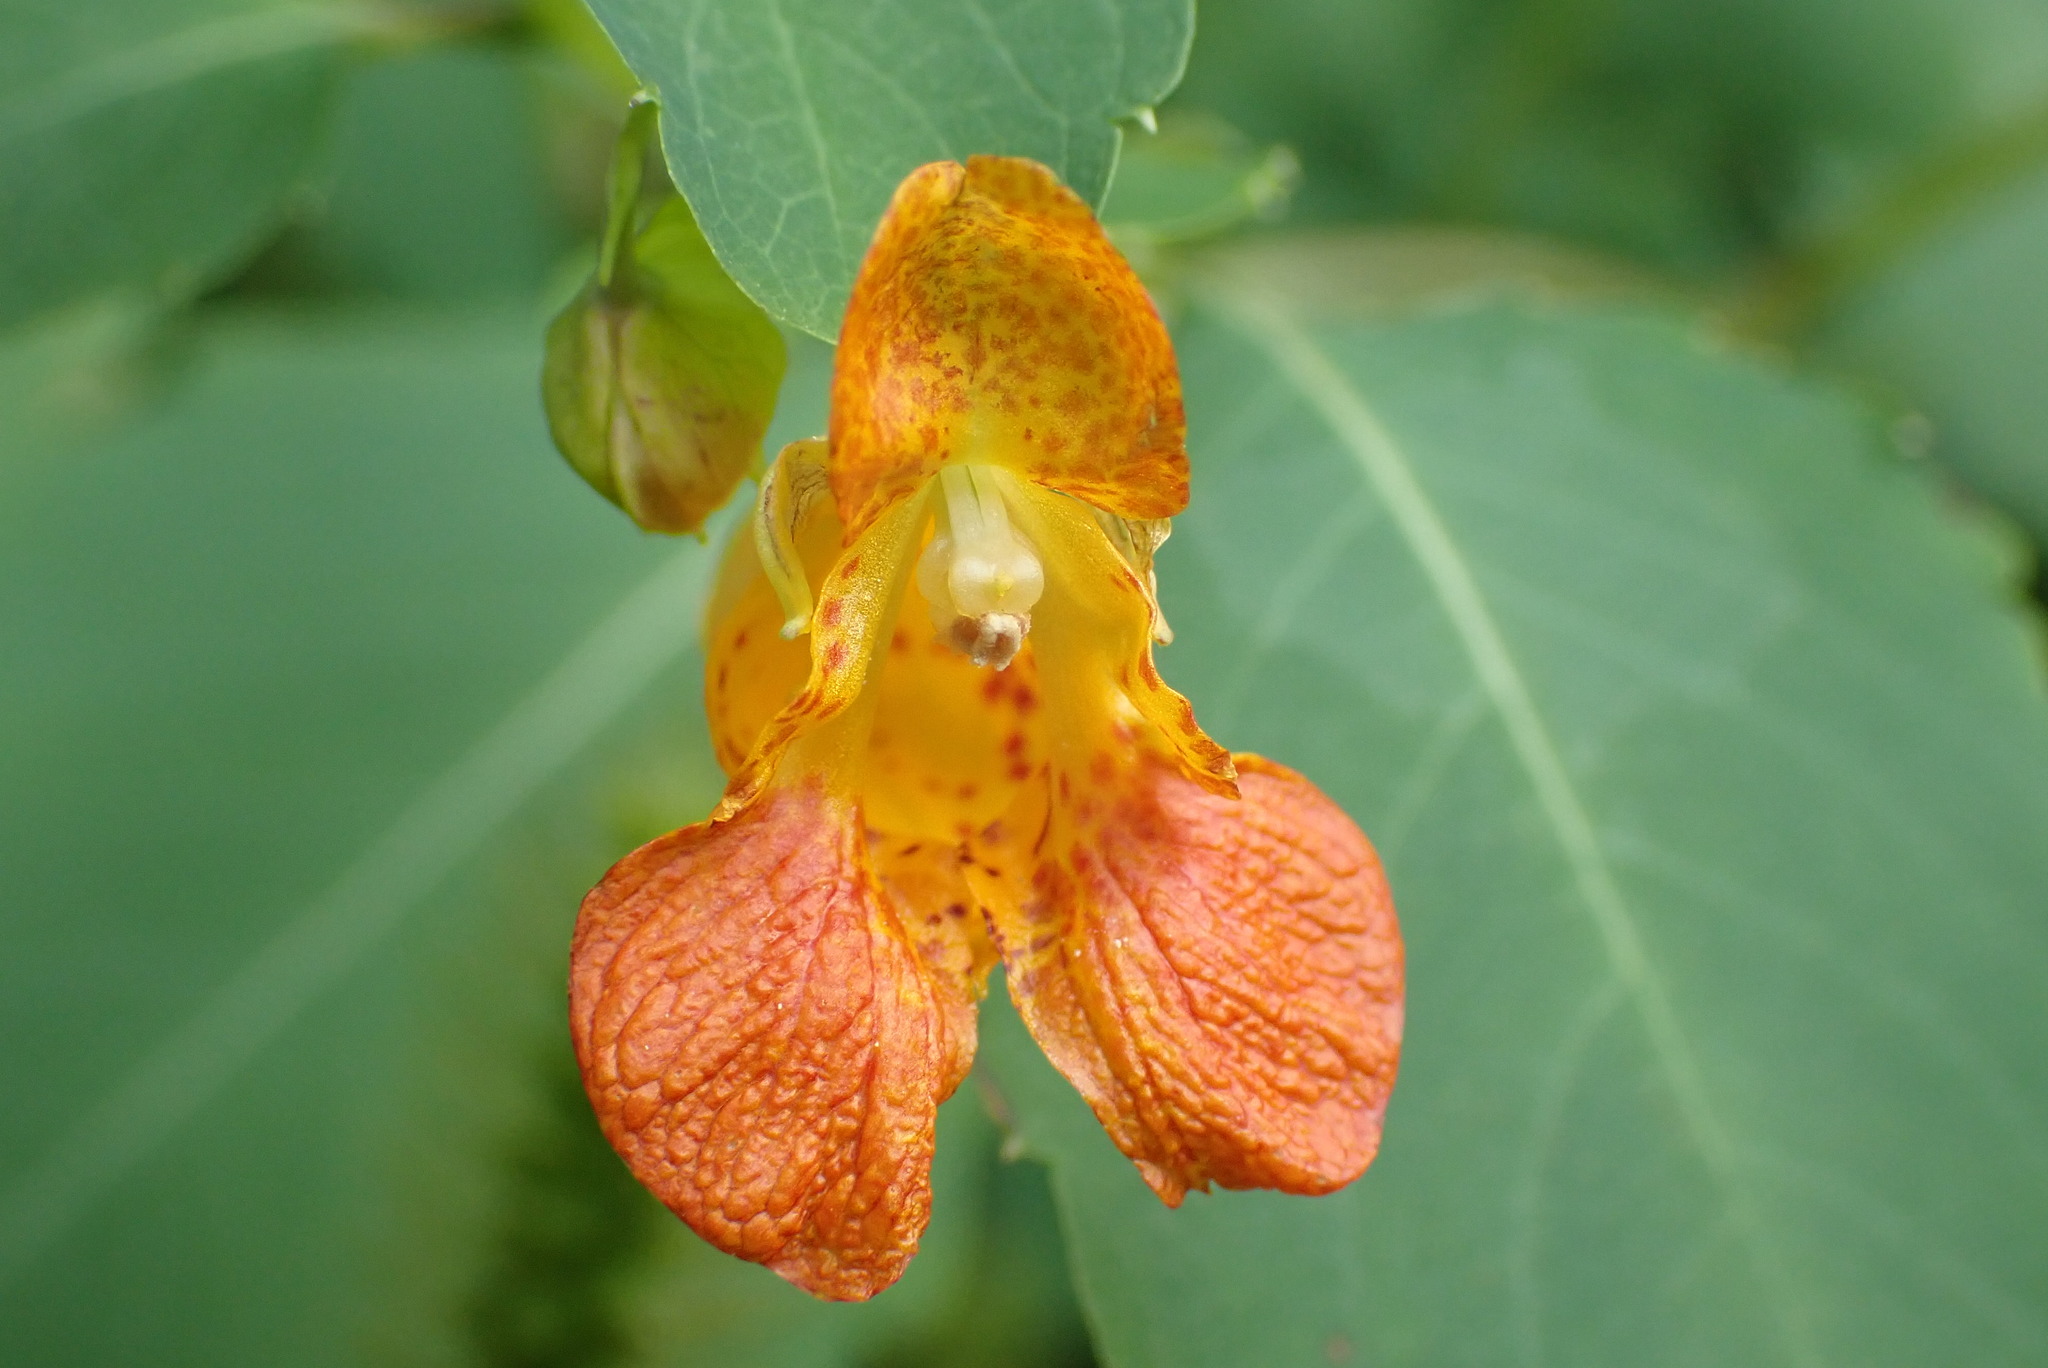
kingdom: Plantae
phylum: Tracheophyta
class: Magnoliopsida
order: Ericales
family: Balsaminaceae
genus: Impatiens
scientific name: Impatiens capensis
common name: Orange balsam
